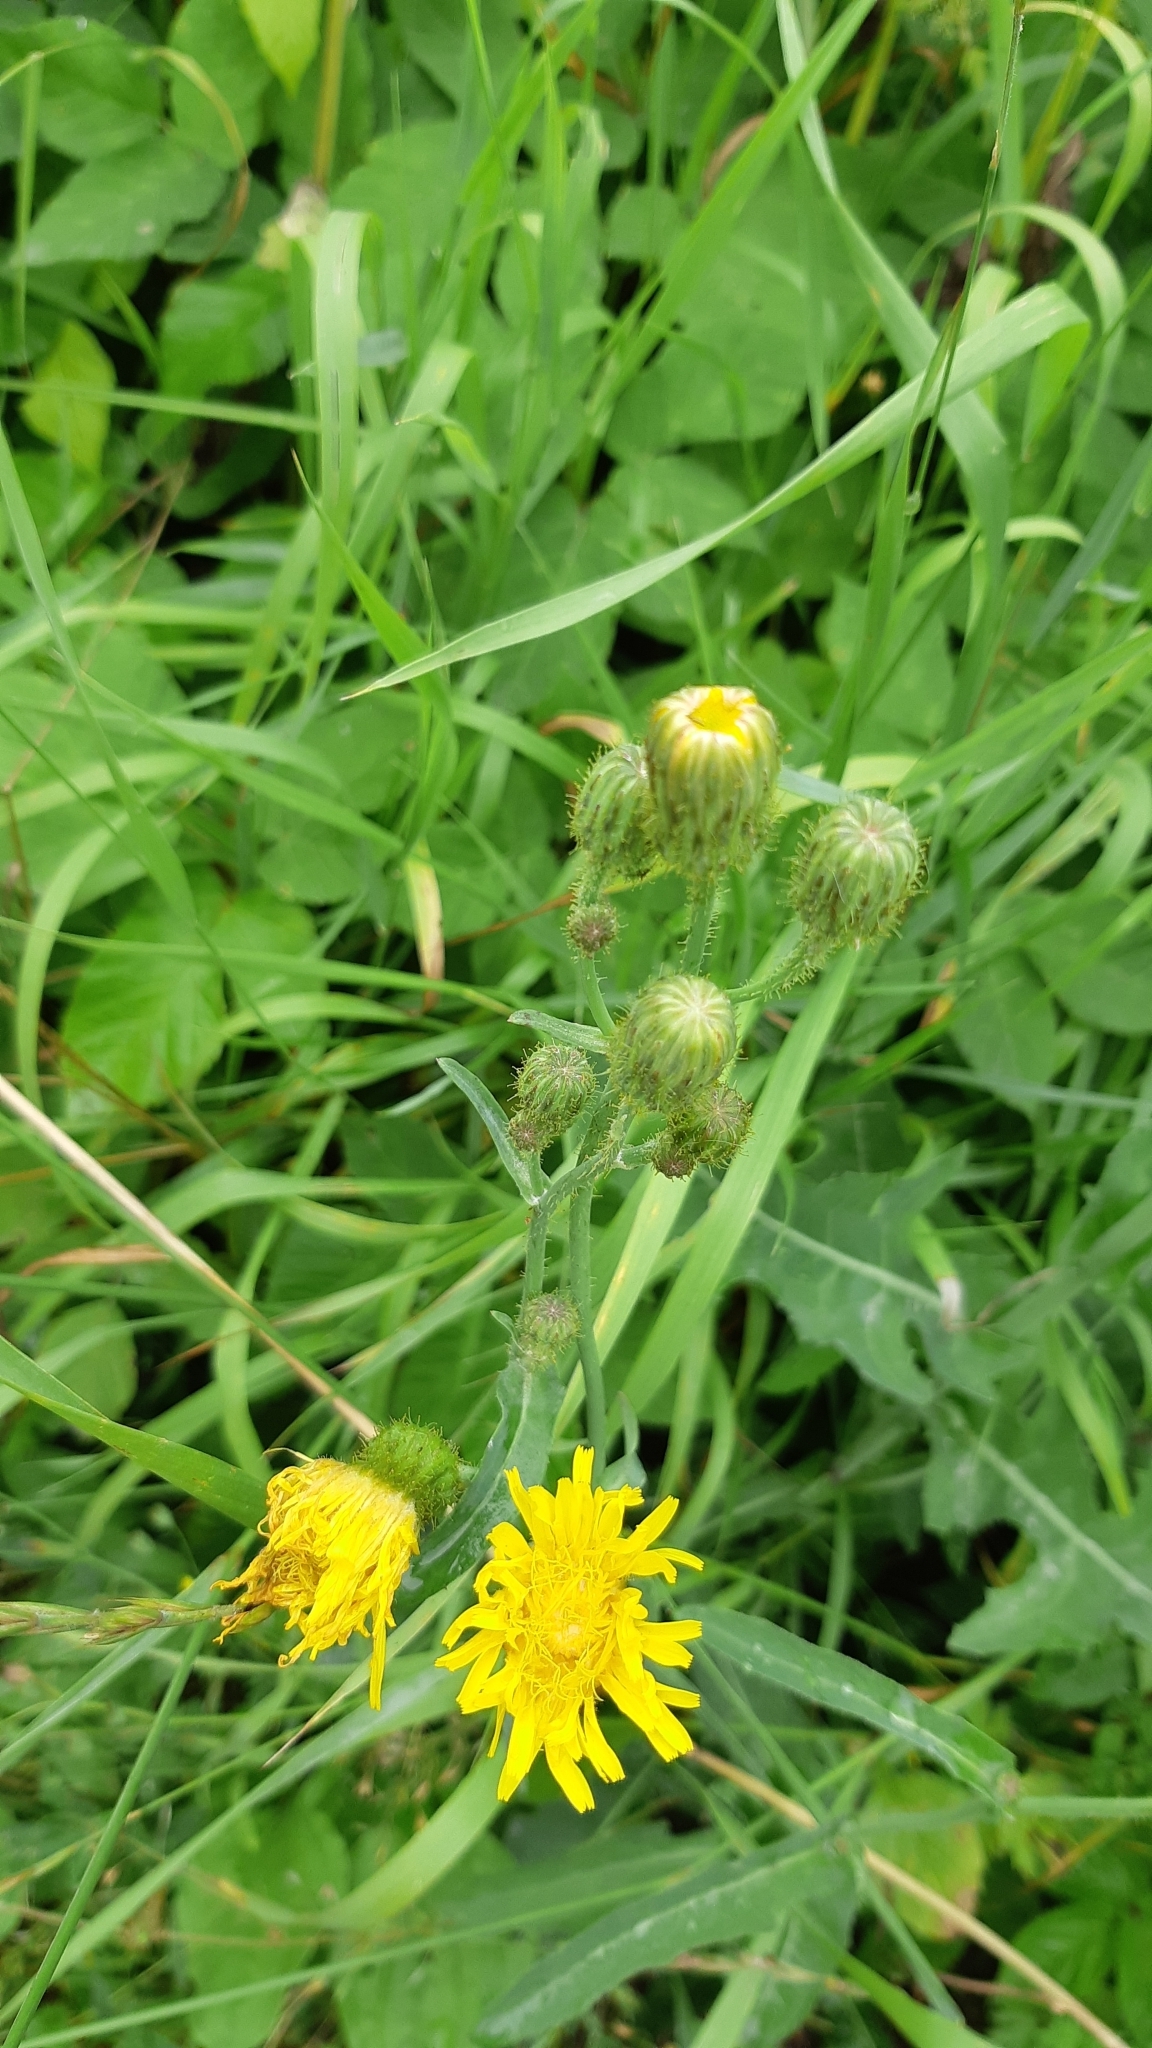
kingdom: Plantae
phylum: Tracheophyta
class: Magnoliopsida
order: Asterales
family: Asteraceae
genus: Sonchus
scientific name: Sonchus arvensis
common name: Perennial sow-thistle
